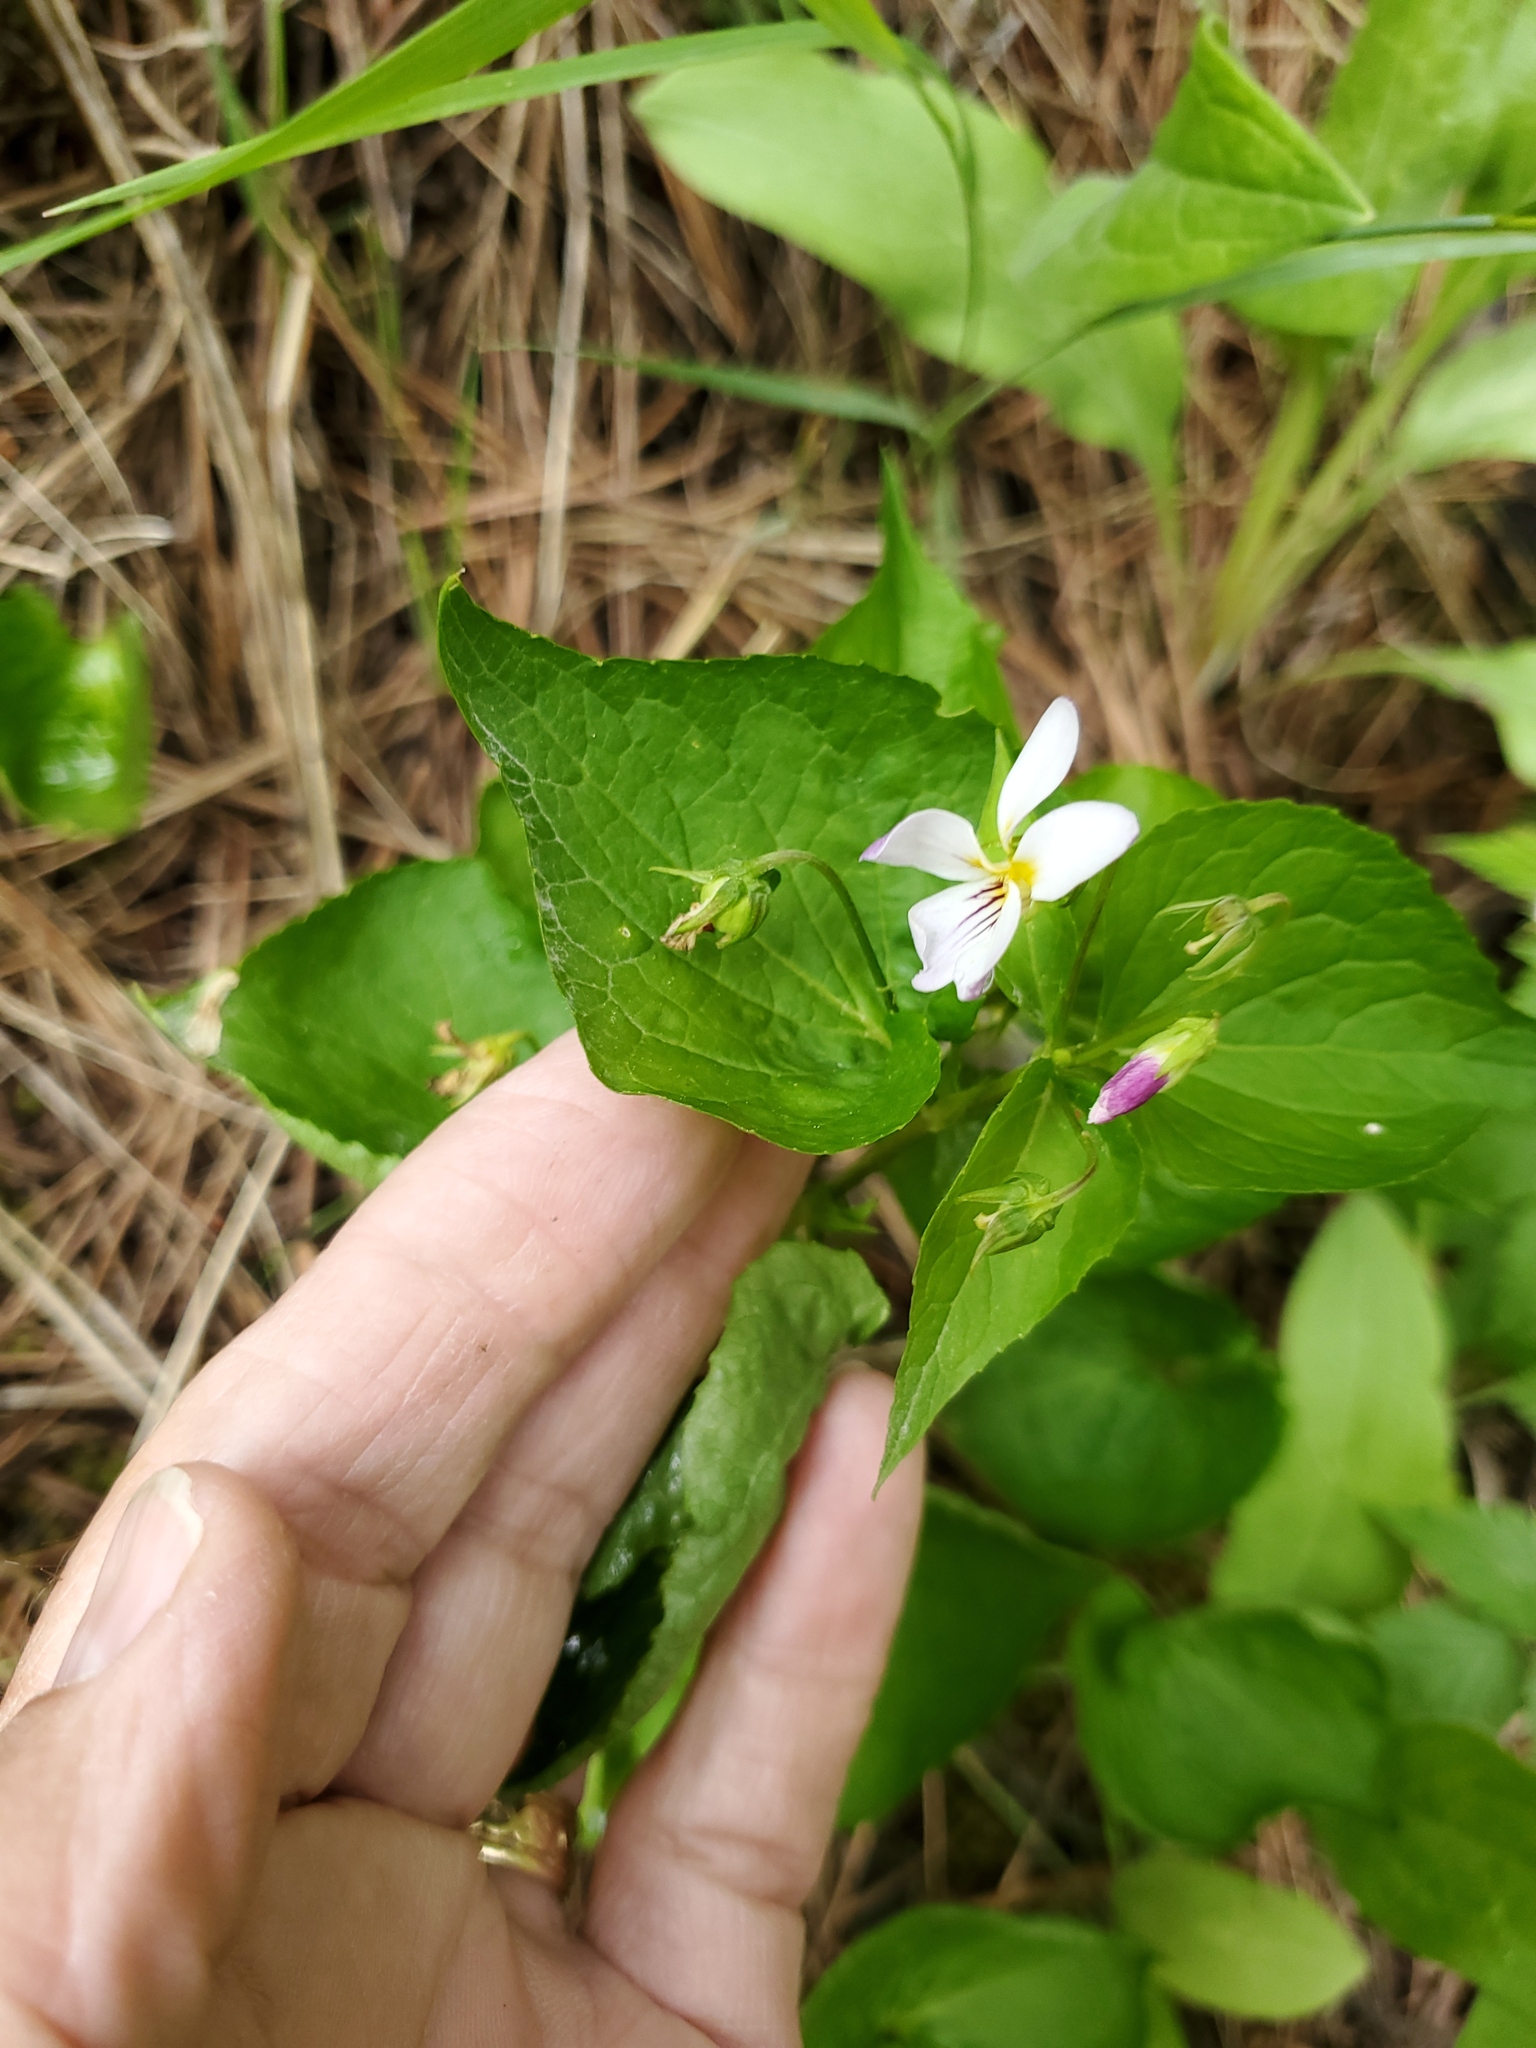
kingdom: Plantae
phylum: Tracheophyta
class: Magnoliopsida
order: Malpighiales
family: Violaceae
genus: Viola
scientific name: Viola canadensis
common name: Canada violet
